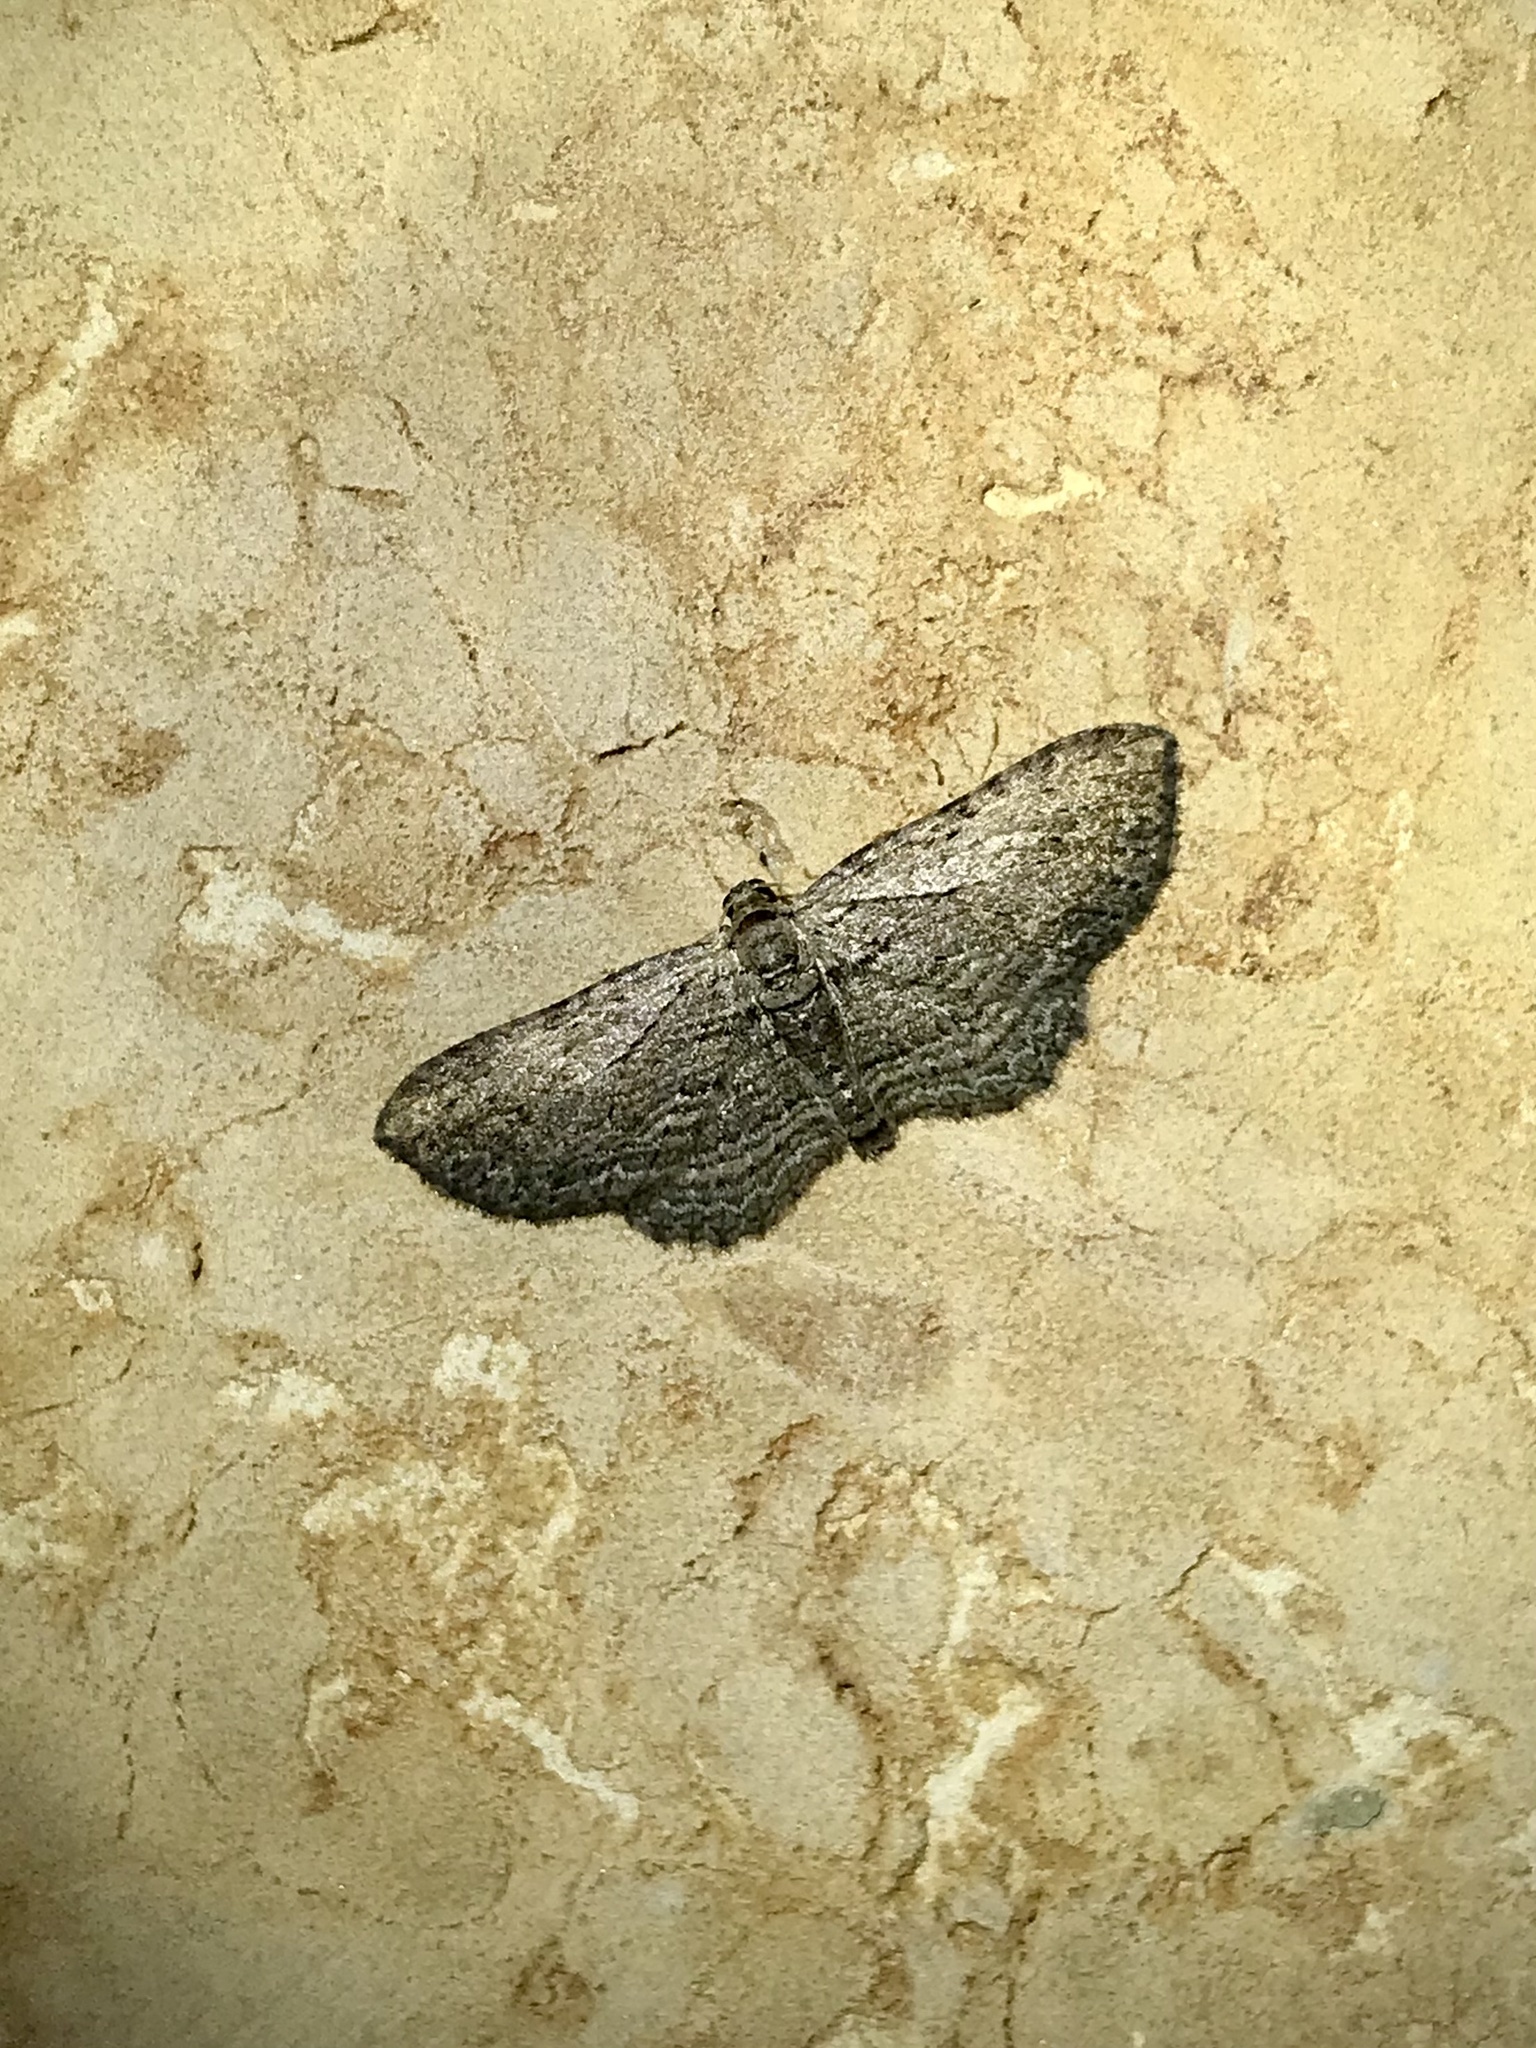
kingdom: Animalia
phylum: Arthropoda
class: Insecta
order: Lepidoptera
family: Geometridae
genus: Horisme
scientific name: Horisme intestinata
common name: Brown bark carpet
